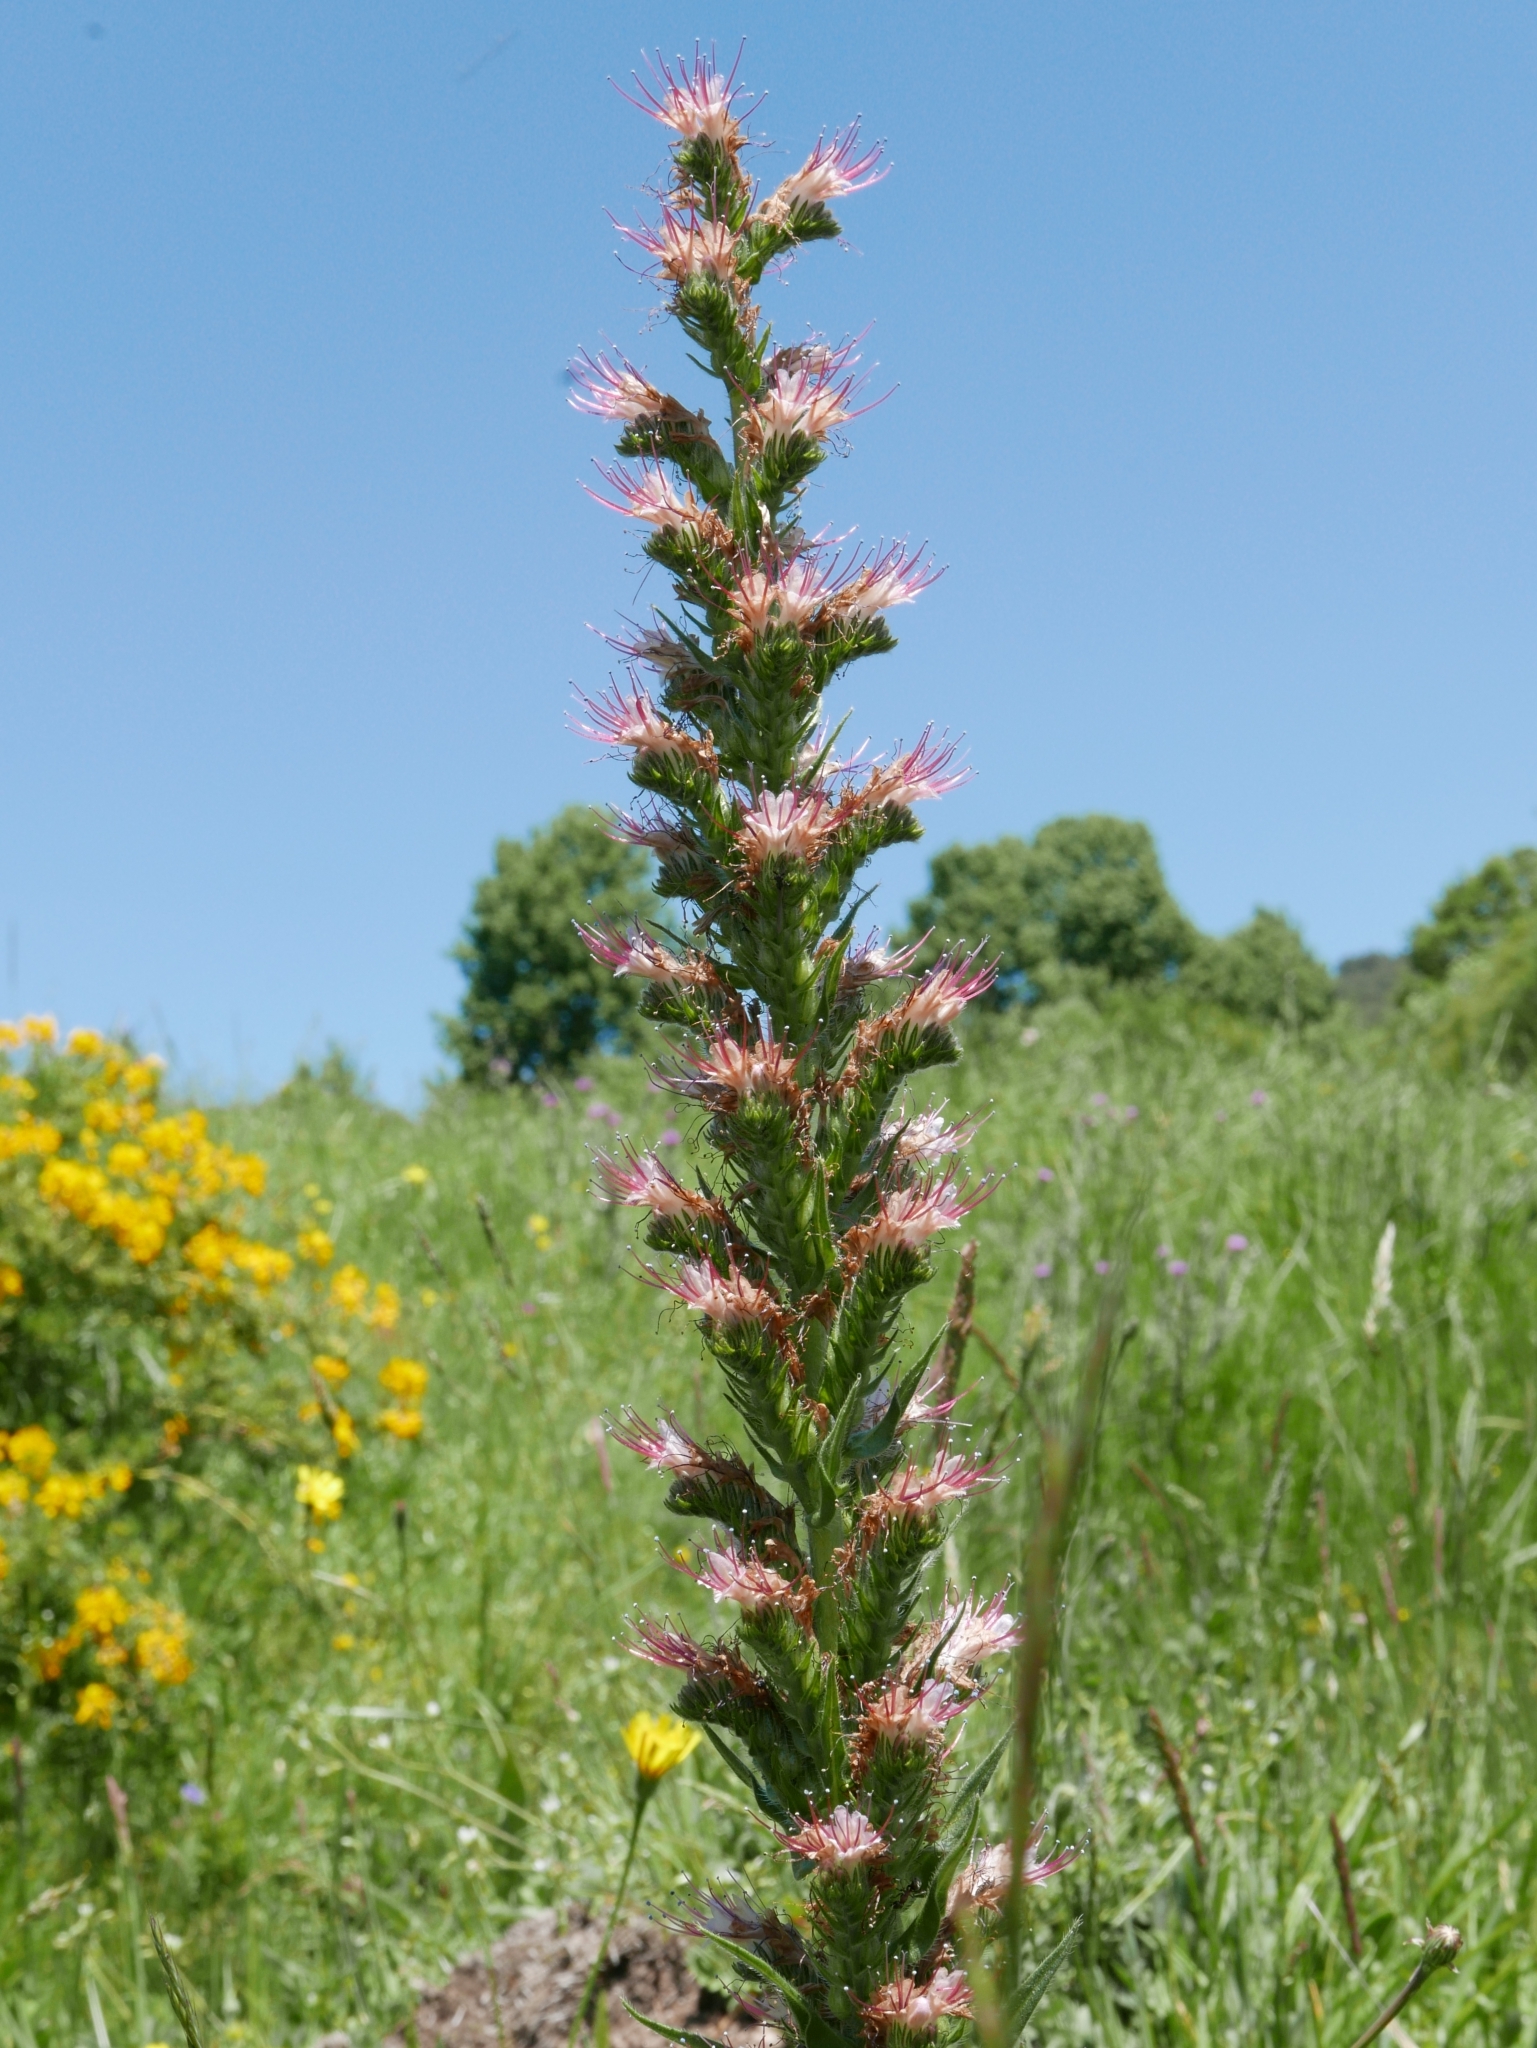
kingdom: Plantae
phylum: Tracheophyta
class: Magnoliopsida
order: Boraginales
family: Boraginaceae
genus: Echium
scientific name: Echium flavum
